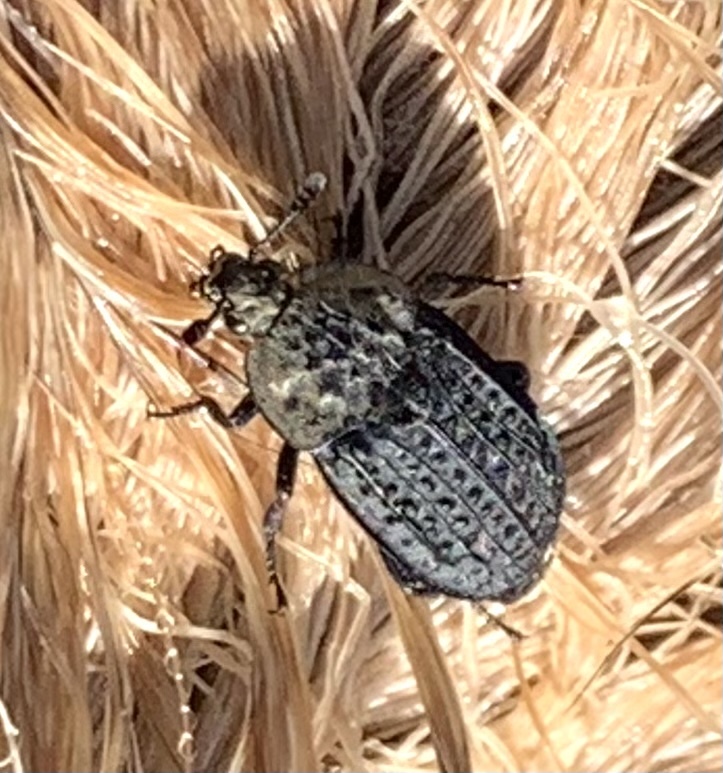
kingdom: Animalia
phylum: Arthropoda
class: Insecta
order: Coleoptera
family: Staphylinidae
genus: Thanatophilus
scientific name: Thanatophilus lapponicus
